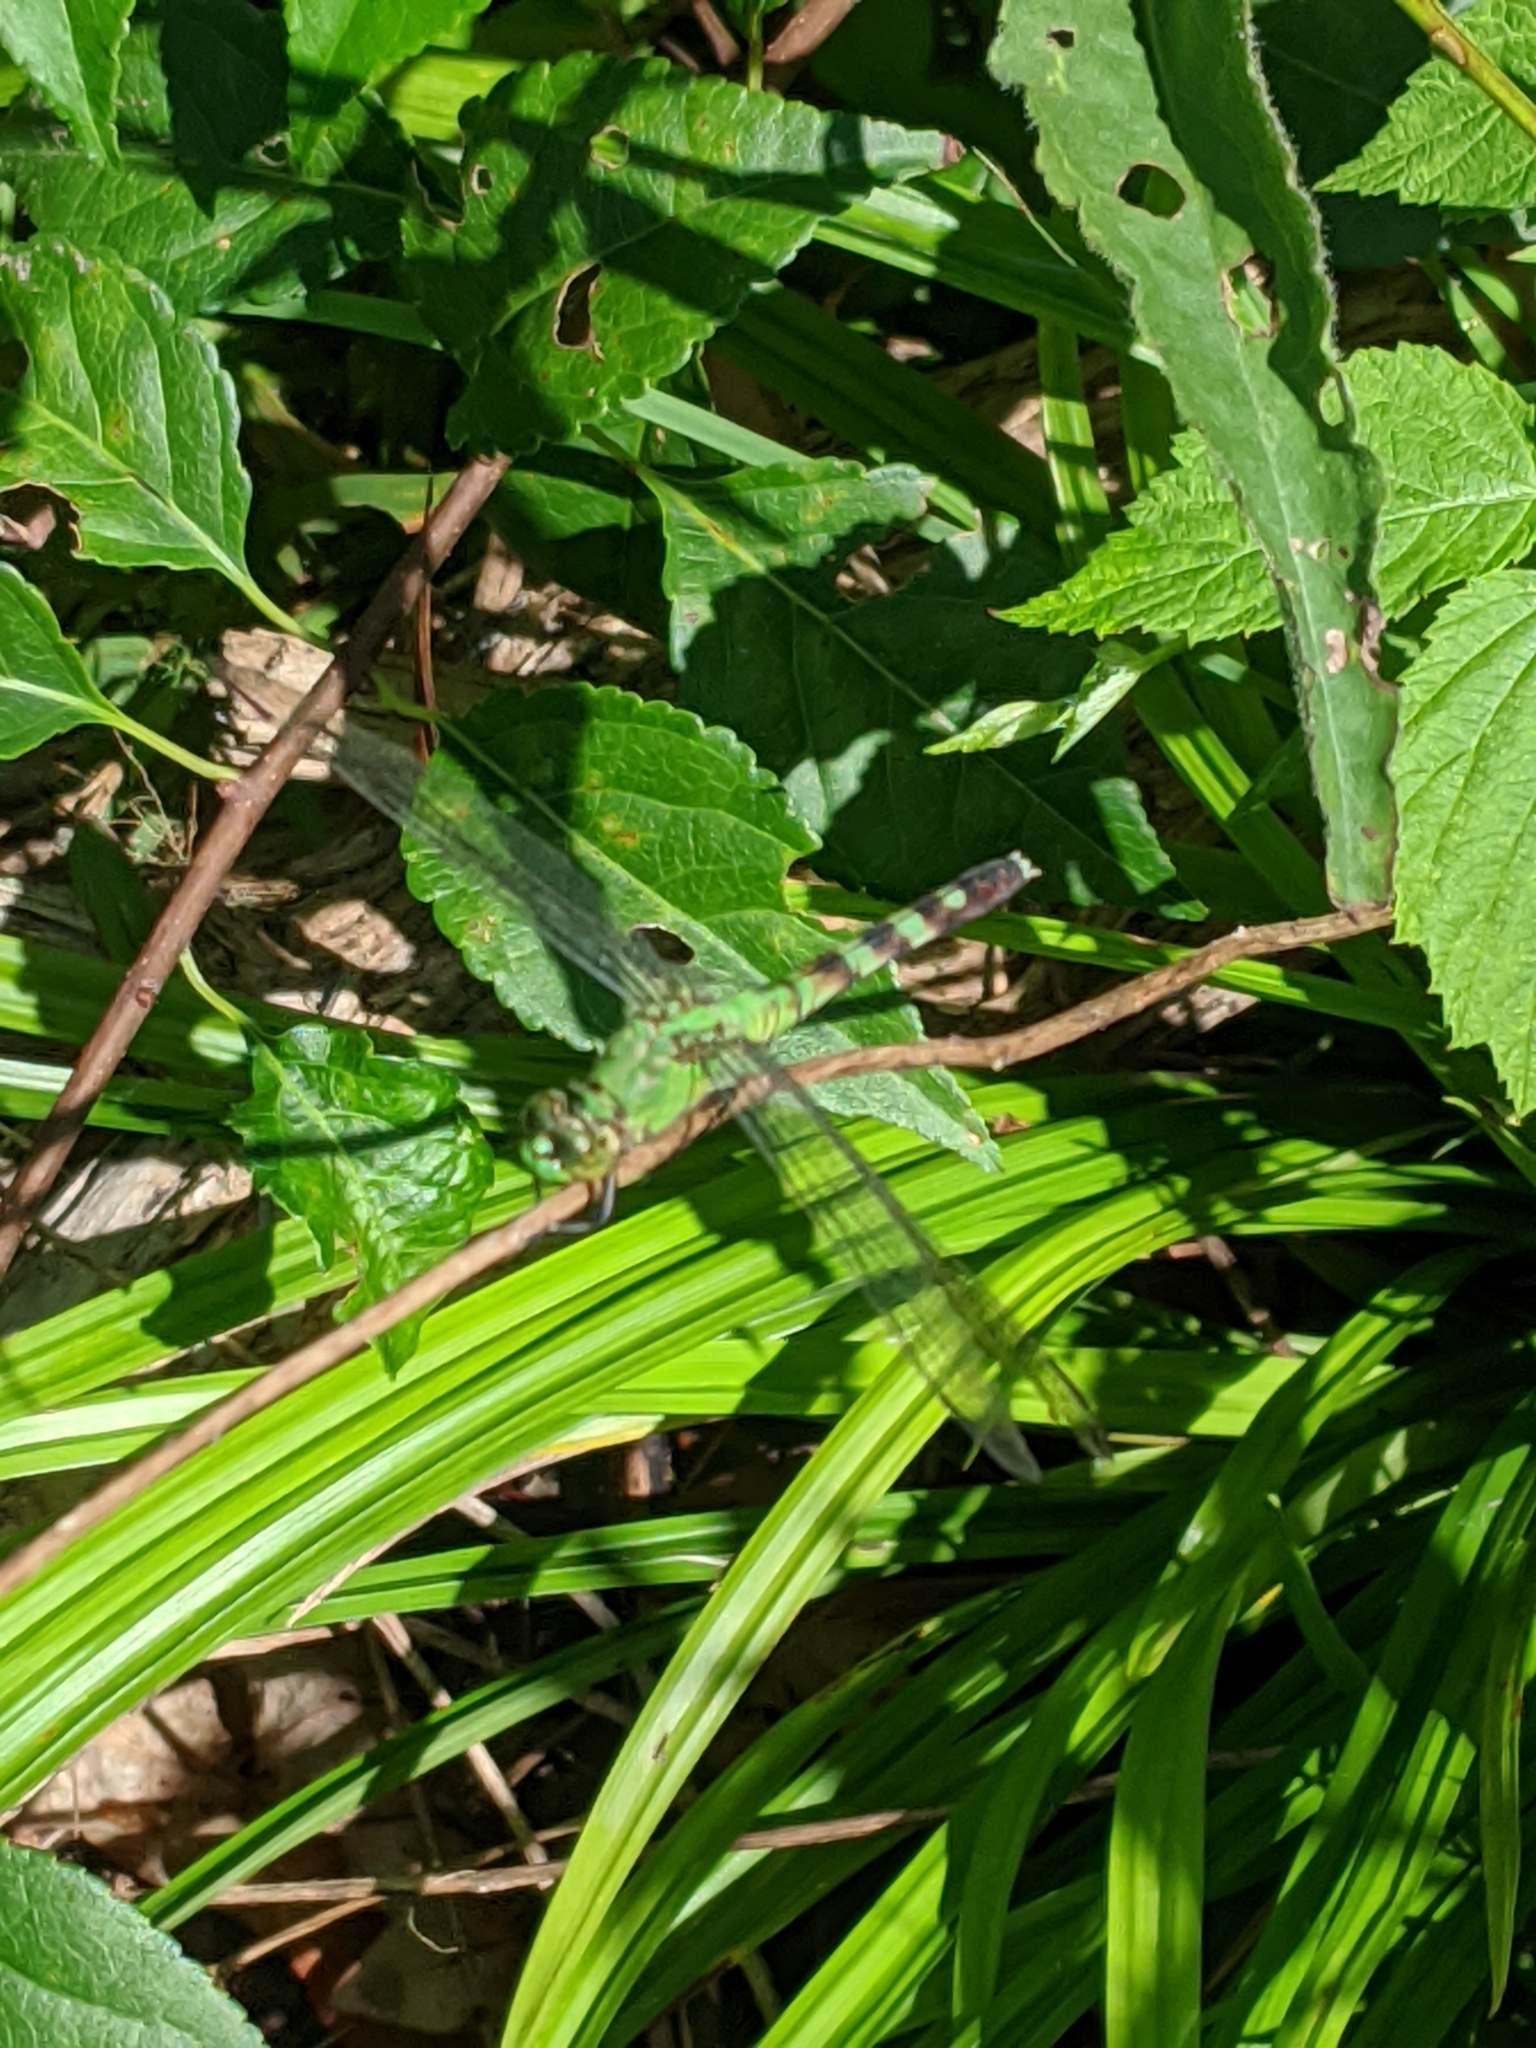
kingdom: Animalia
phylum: Arthropoda
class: Insecta
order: Odonata
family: Libellulidae
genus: Erythemis
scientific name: Erythemis simplicicollis
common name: Eastern pondhawk
